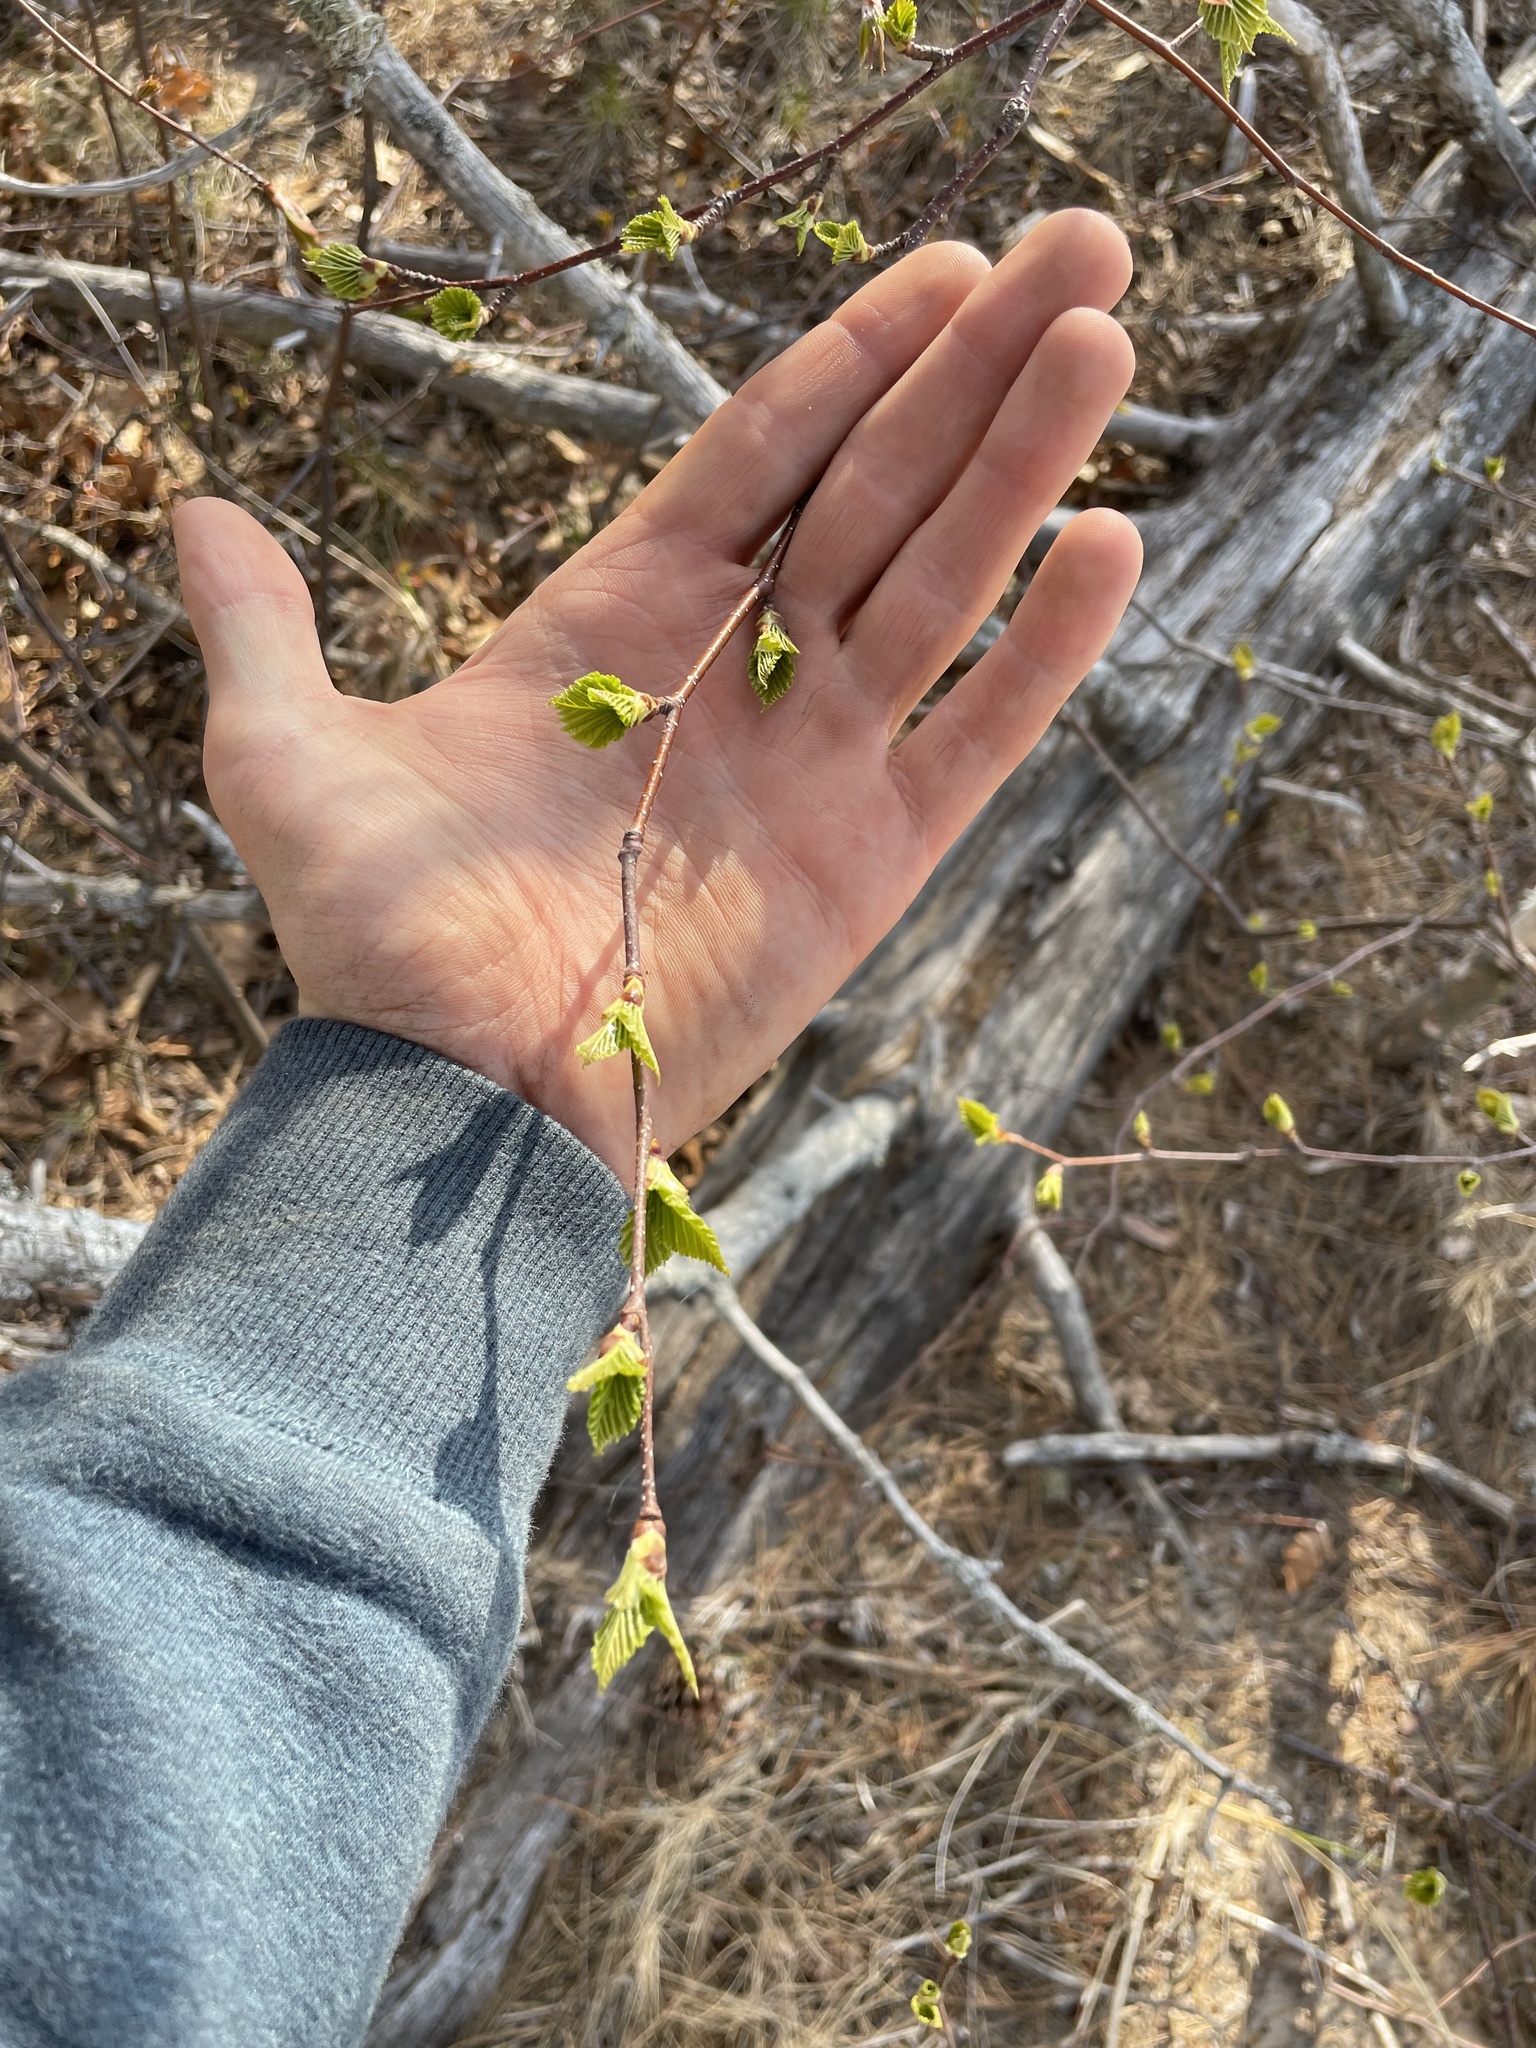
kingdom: Plantae
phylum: Tracheophyta
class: Magnoliopsida
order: Fagales
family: Betulaceae
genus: Betula
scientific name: Betula papyrifera
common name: Paper birch
